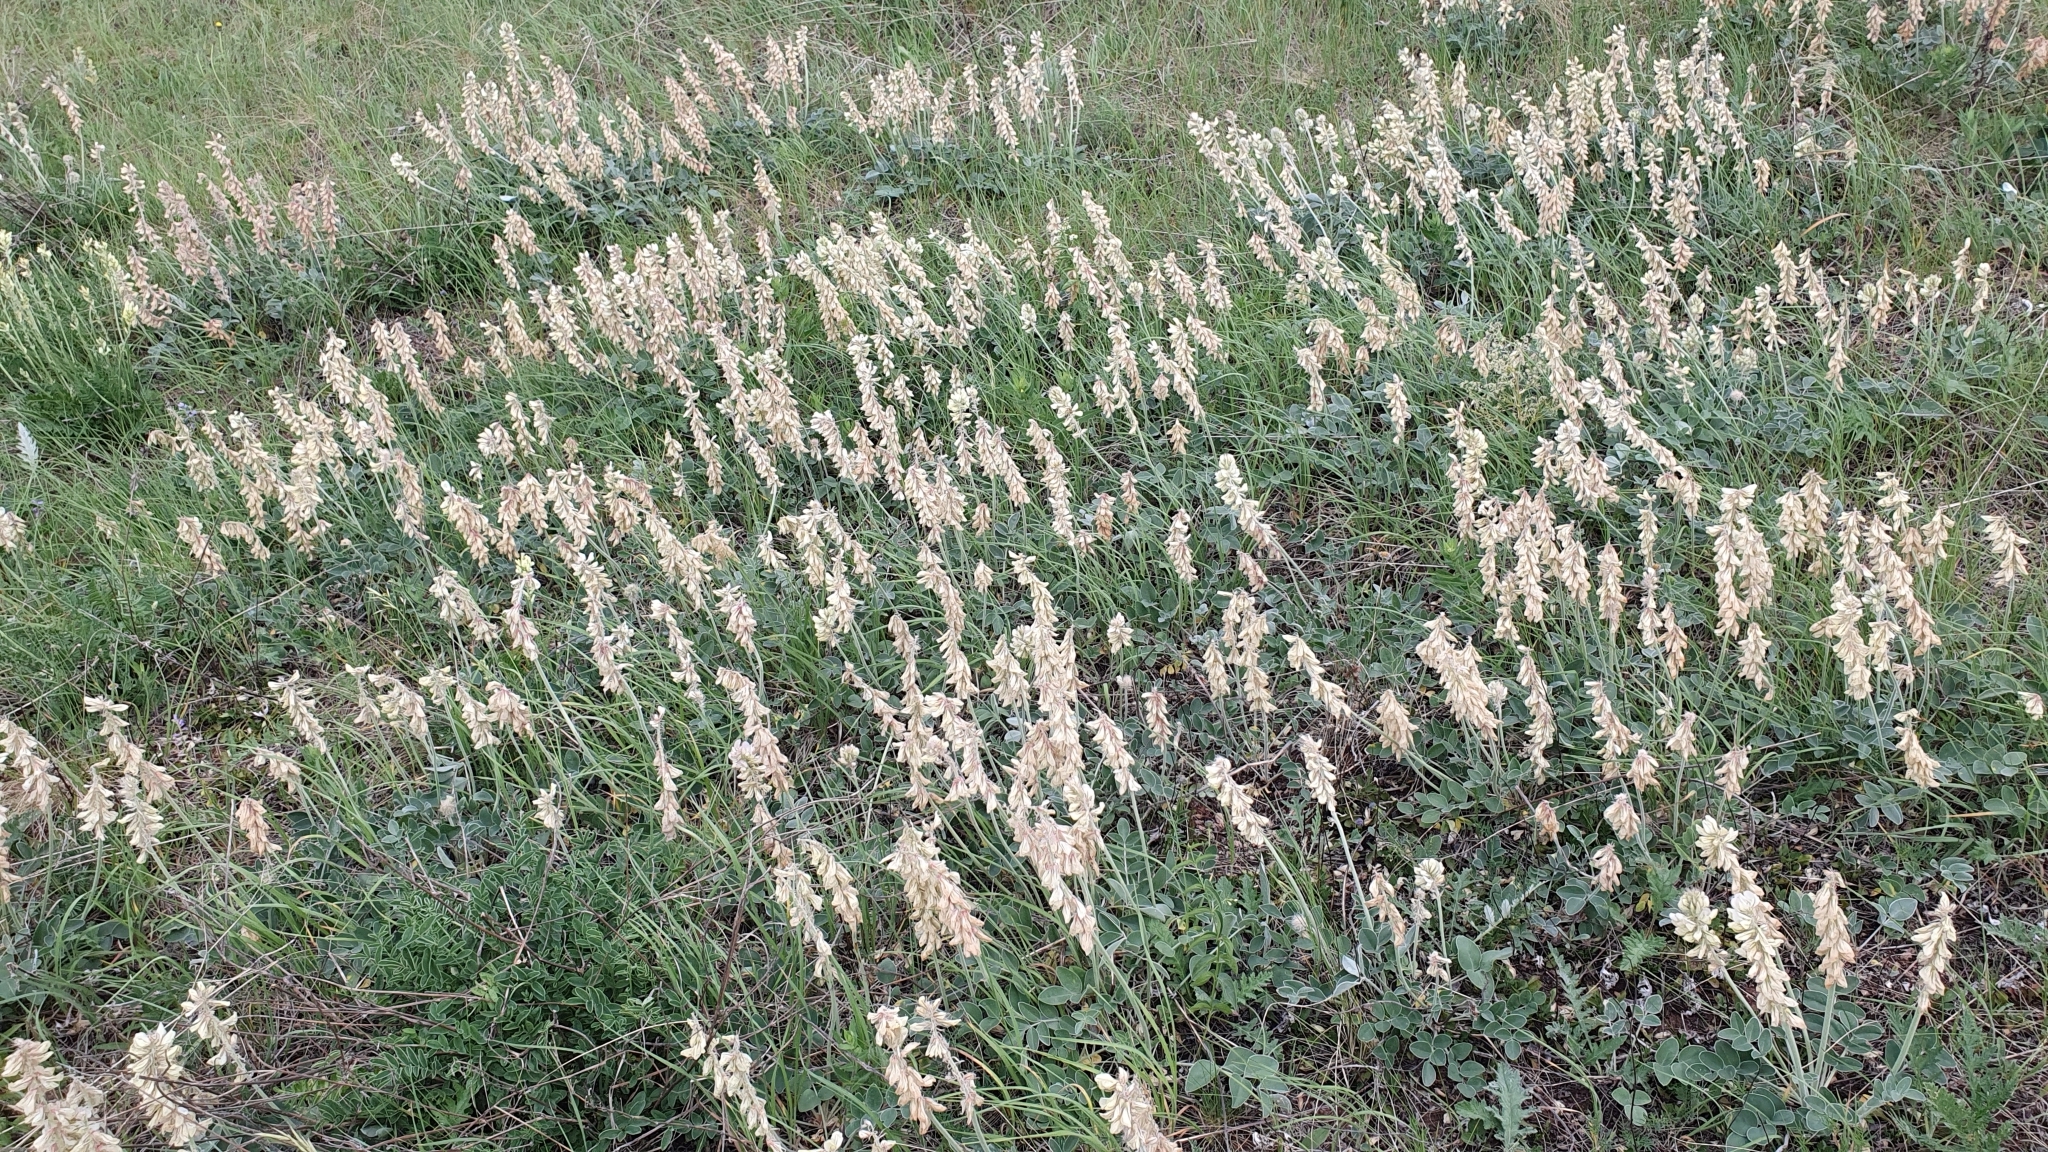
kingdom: Plantae
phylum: Tracheophyta
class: Magnoliopsida
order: Fabales
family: Fabaceae
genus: Hedysarum
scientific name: Hedysarum grandiflorum
